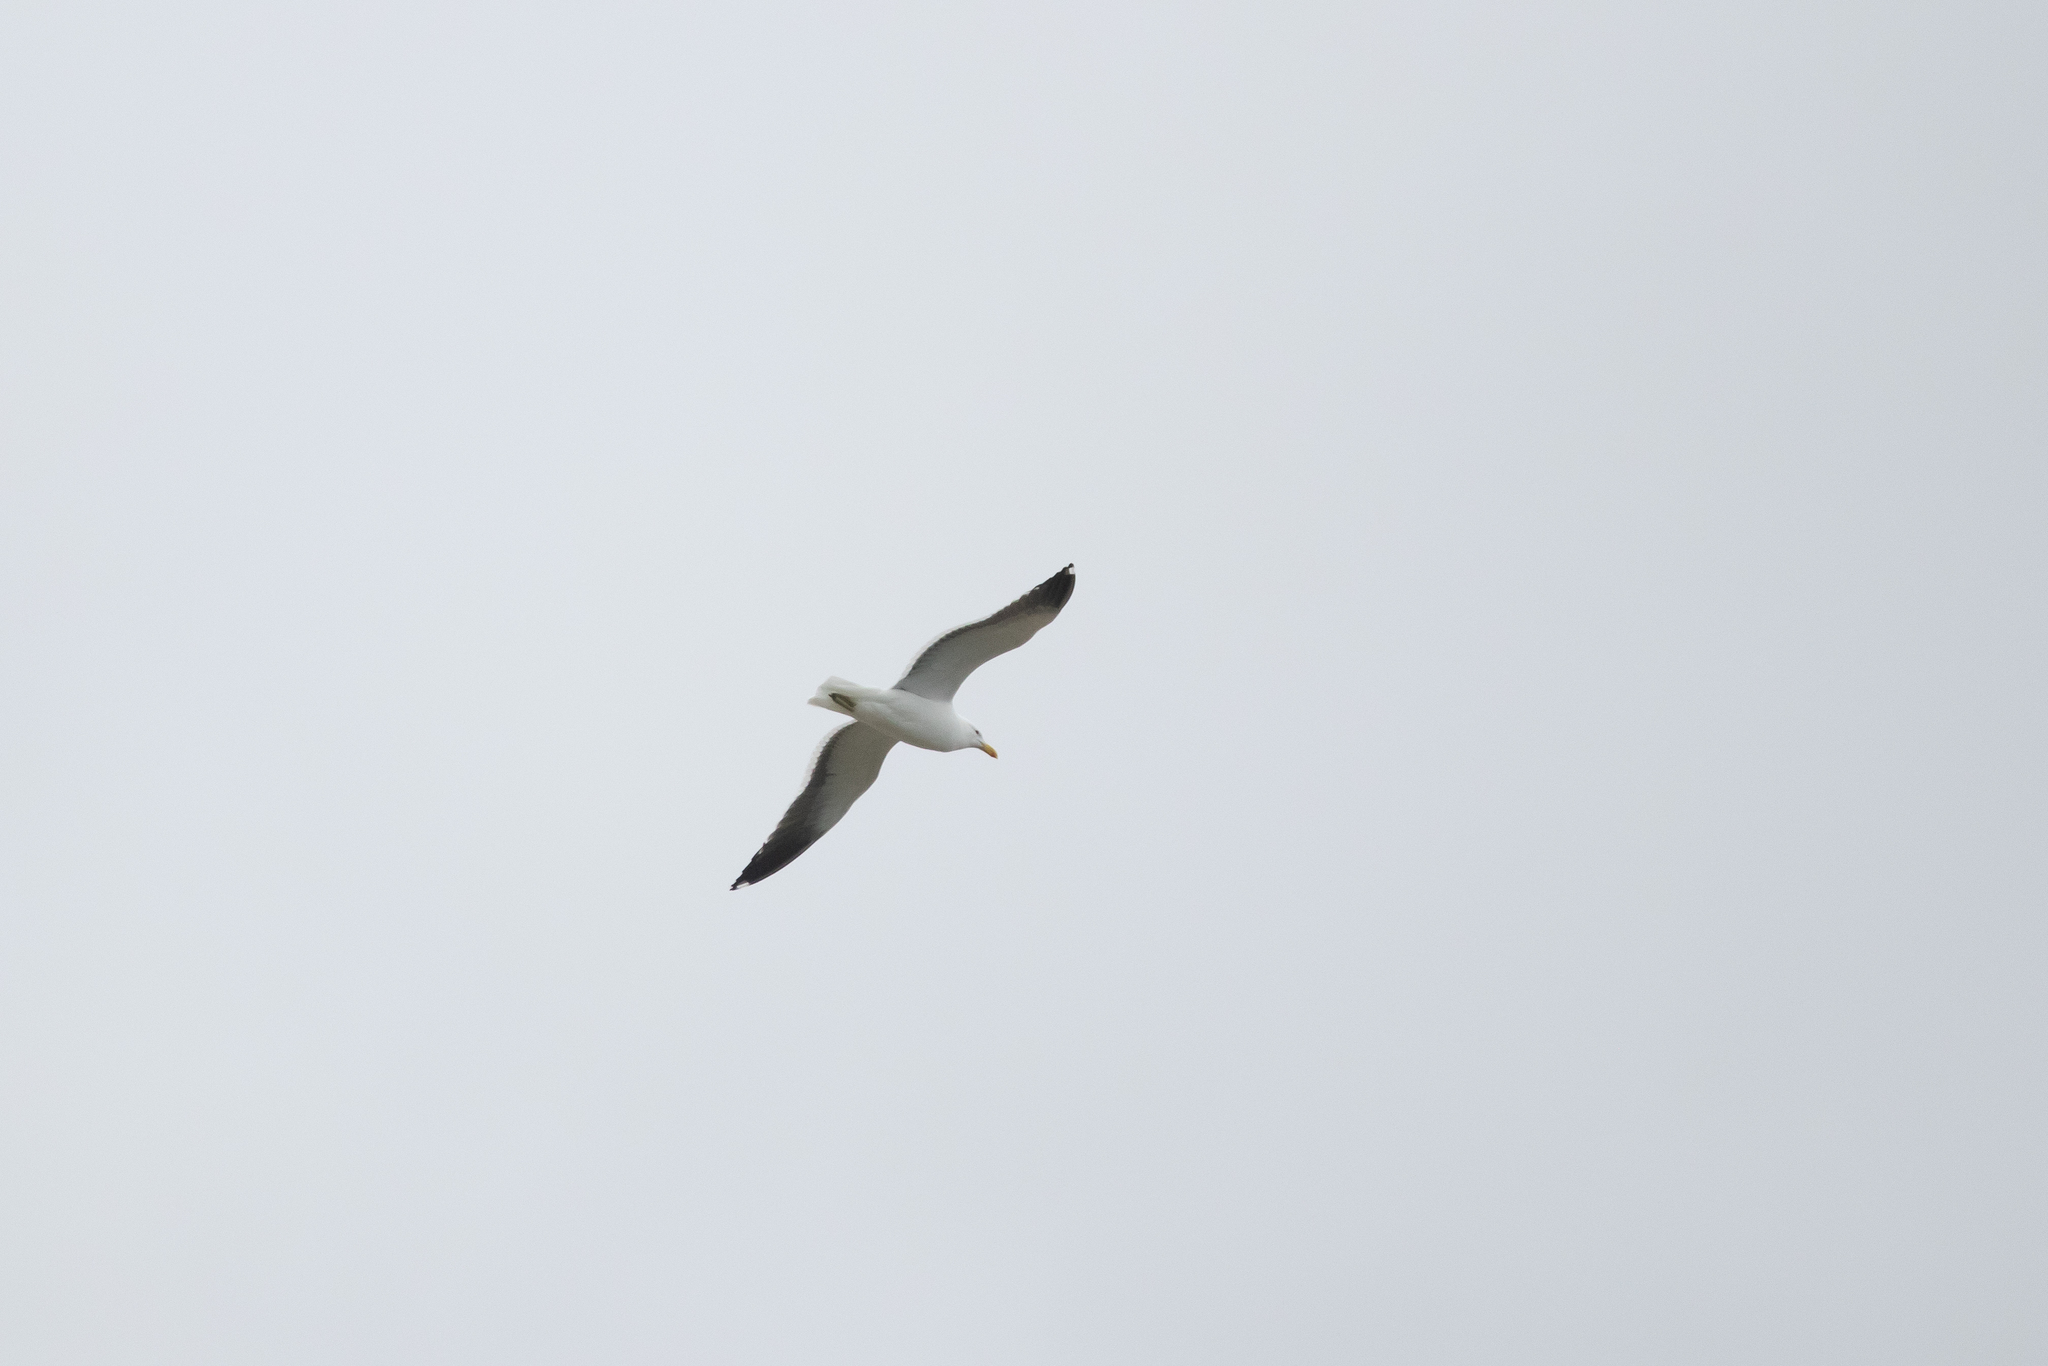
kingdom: Animalia
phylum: Chordata
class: Aves
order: Charadriiformes
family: Laridae
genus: Larus
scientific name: Larus dominicanus
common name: Kelp gull
